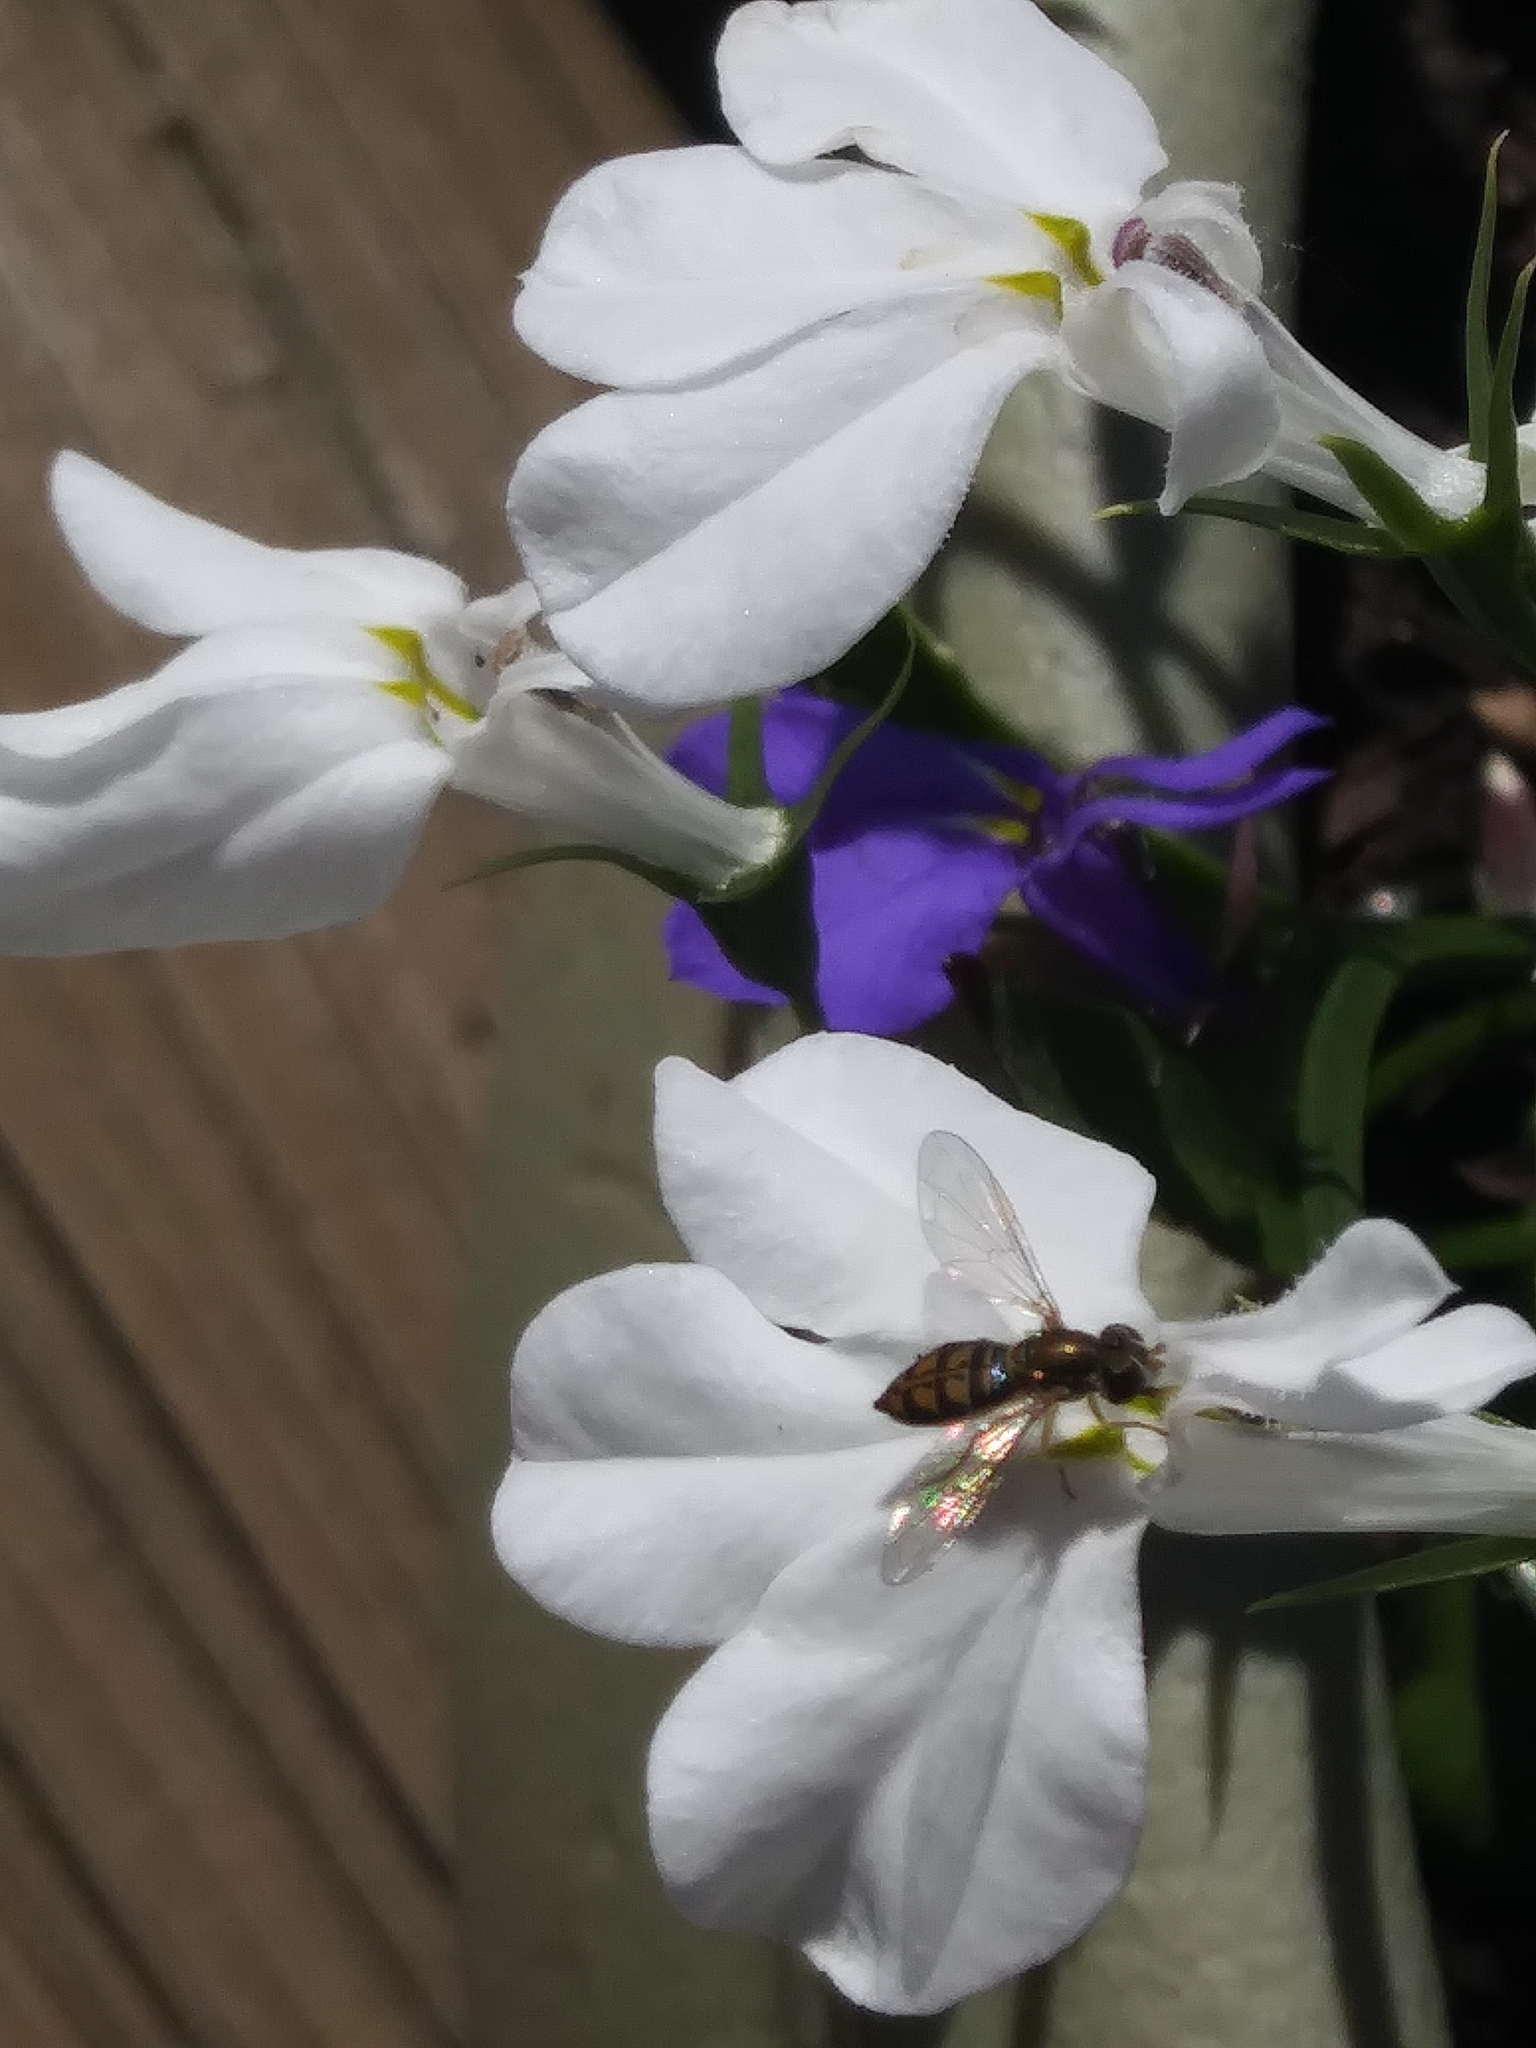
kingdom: Animalia
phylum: Arthropoda
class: Insecta
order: Diptera
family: Syrphidae
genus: Toxomerus
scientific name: Toxomerus marginatus
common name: Syrphid fly
